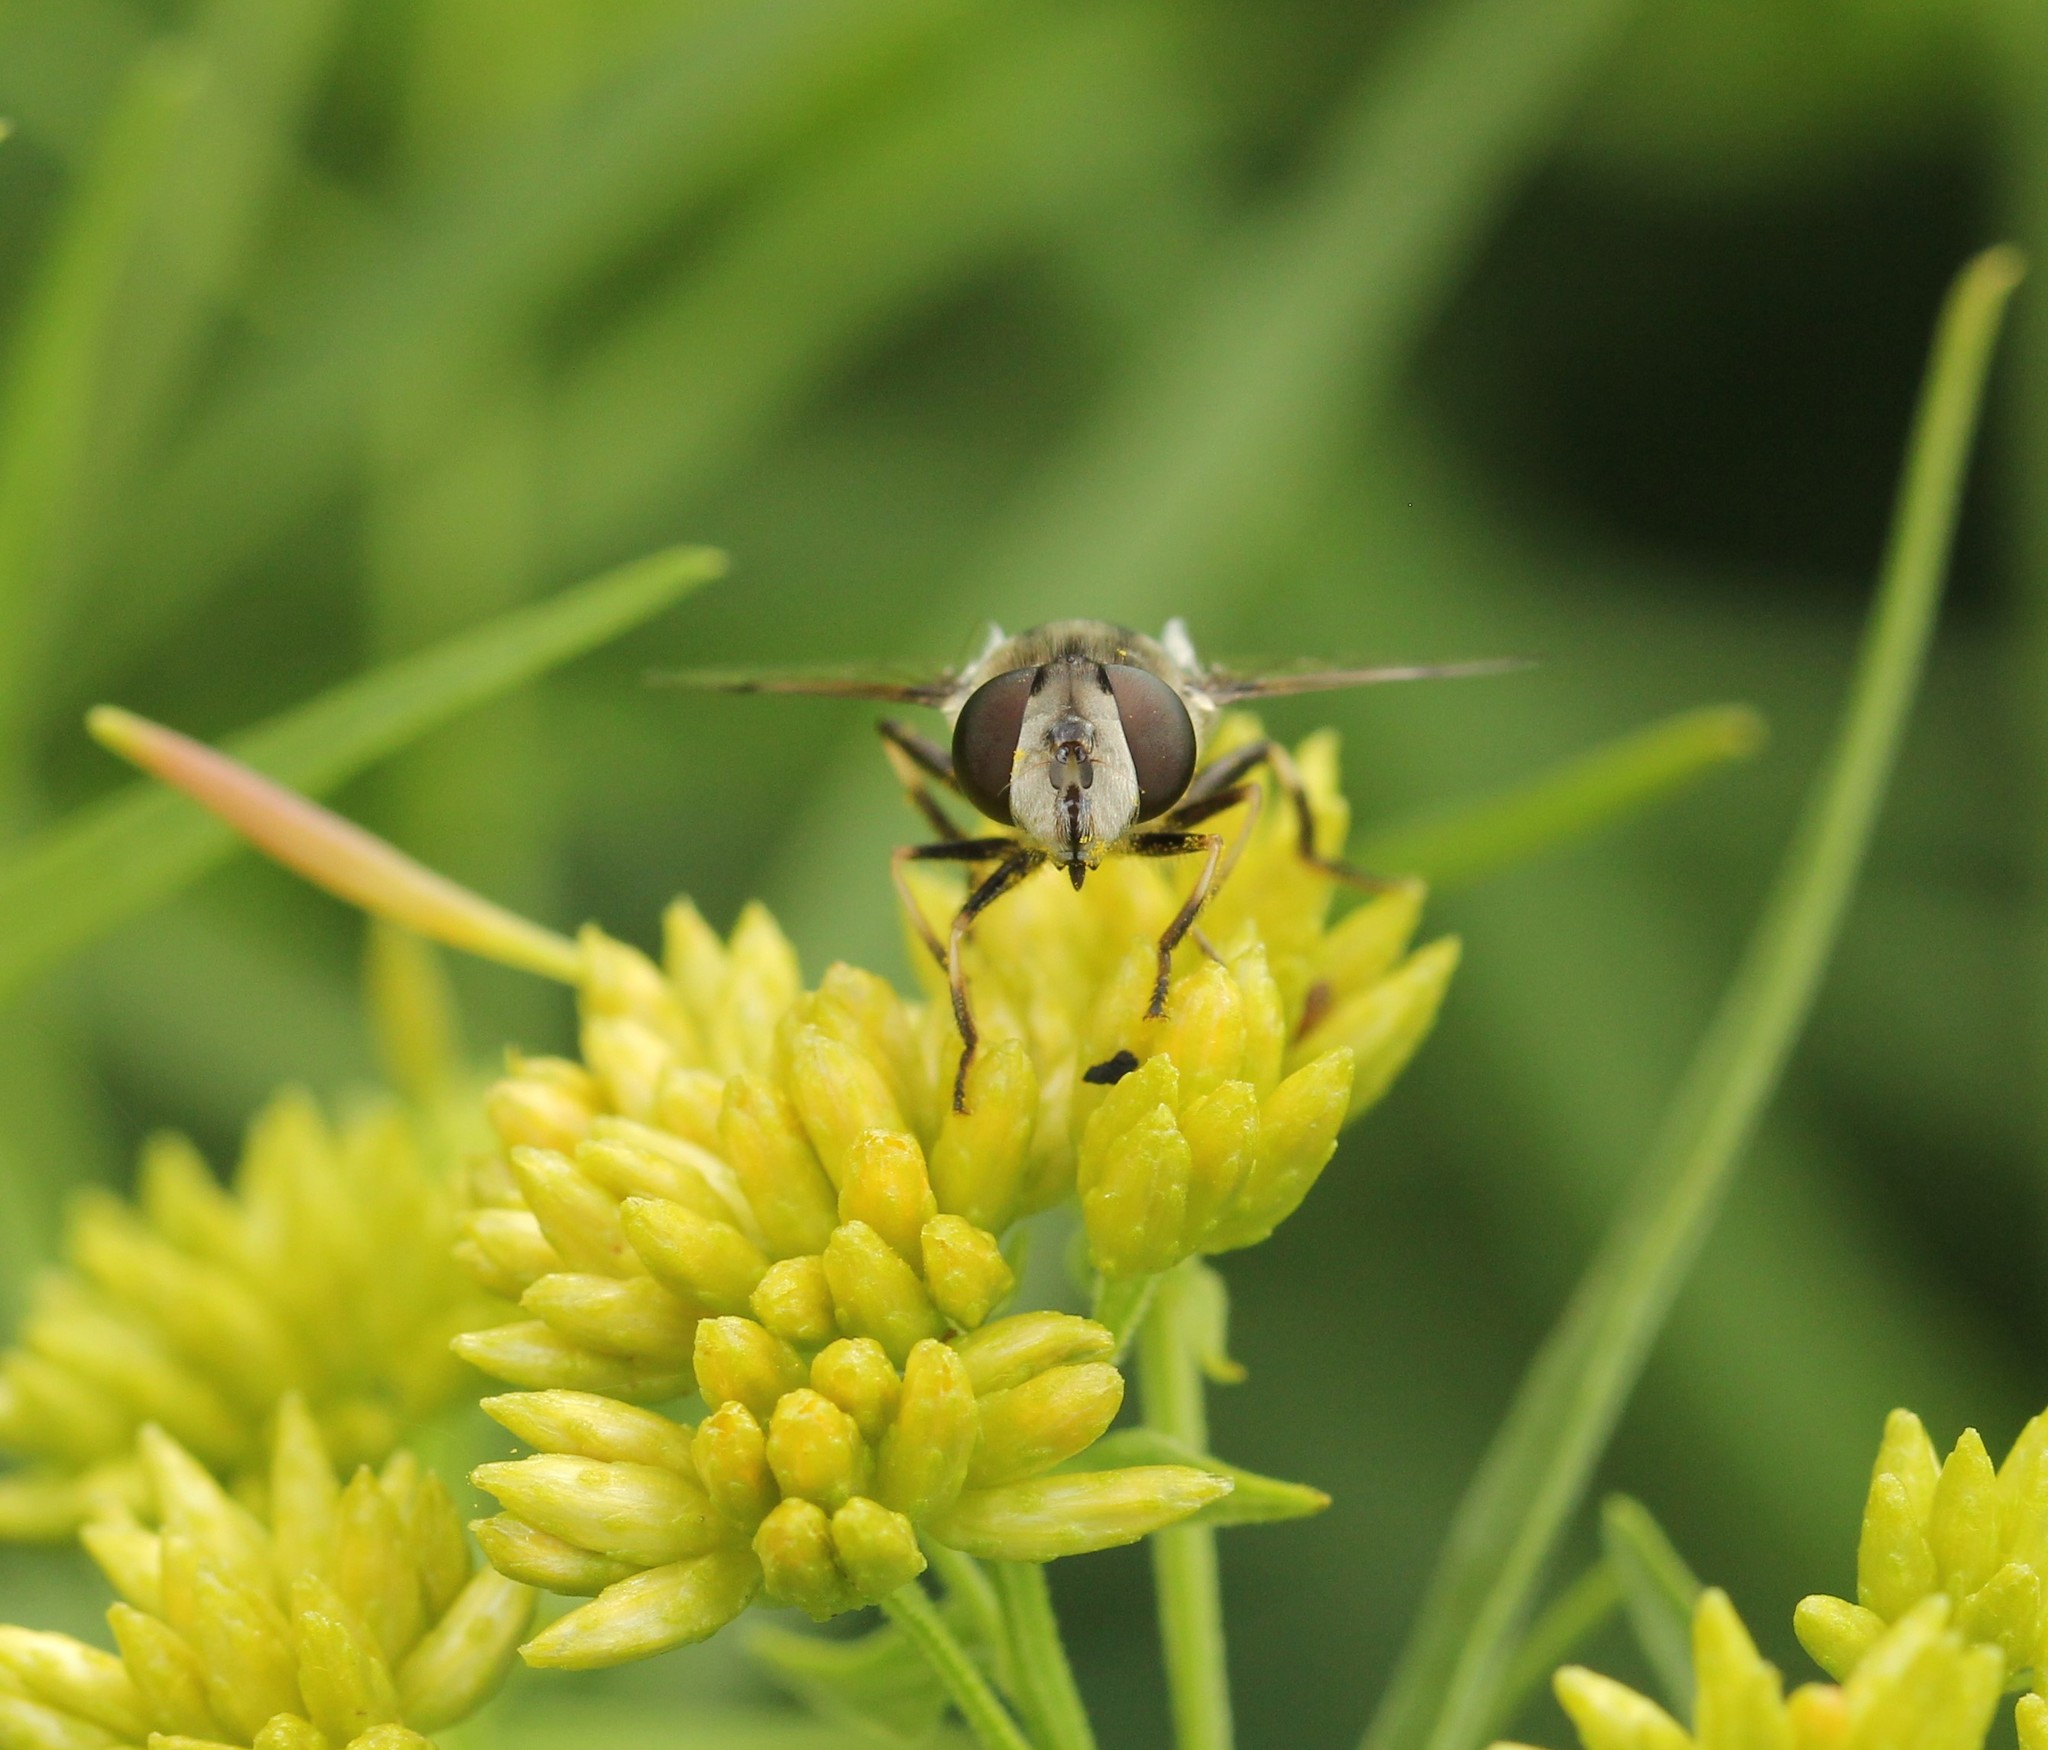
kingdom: Animalia
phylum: Arthropoda
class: Insecta
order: Diptera
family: Syrphidae
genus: Eristalis
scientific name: Eristalis dimidiata
